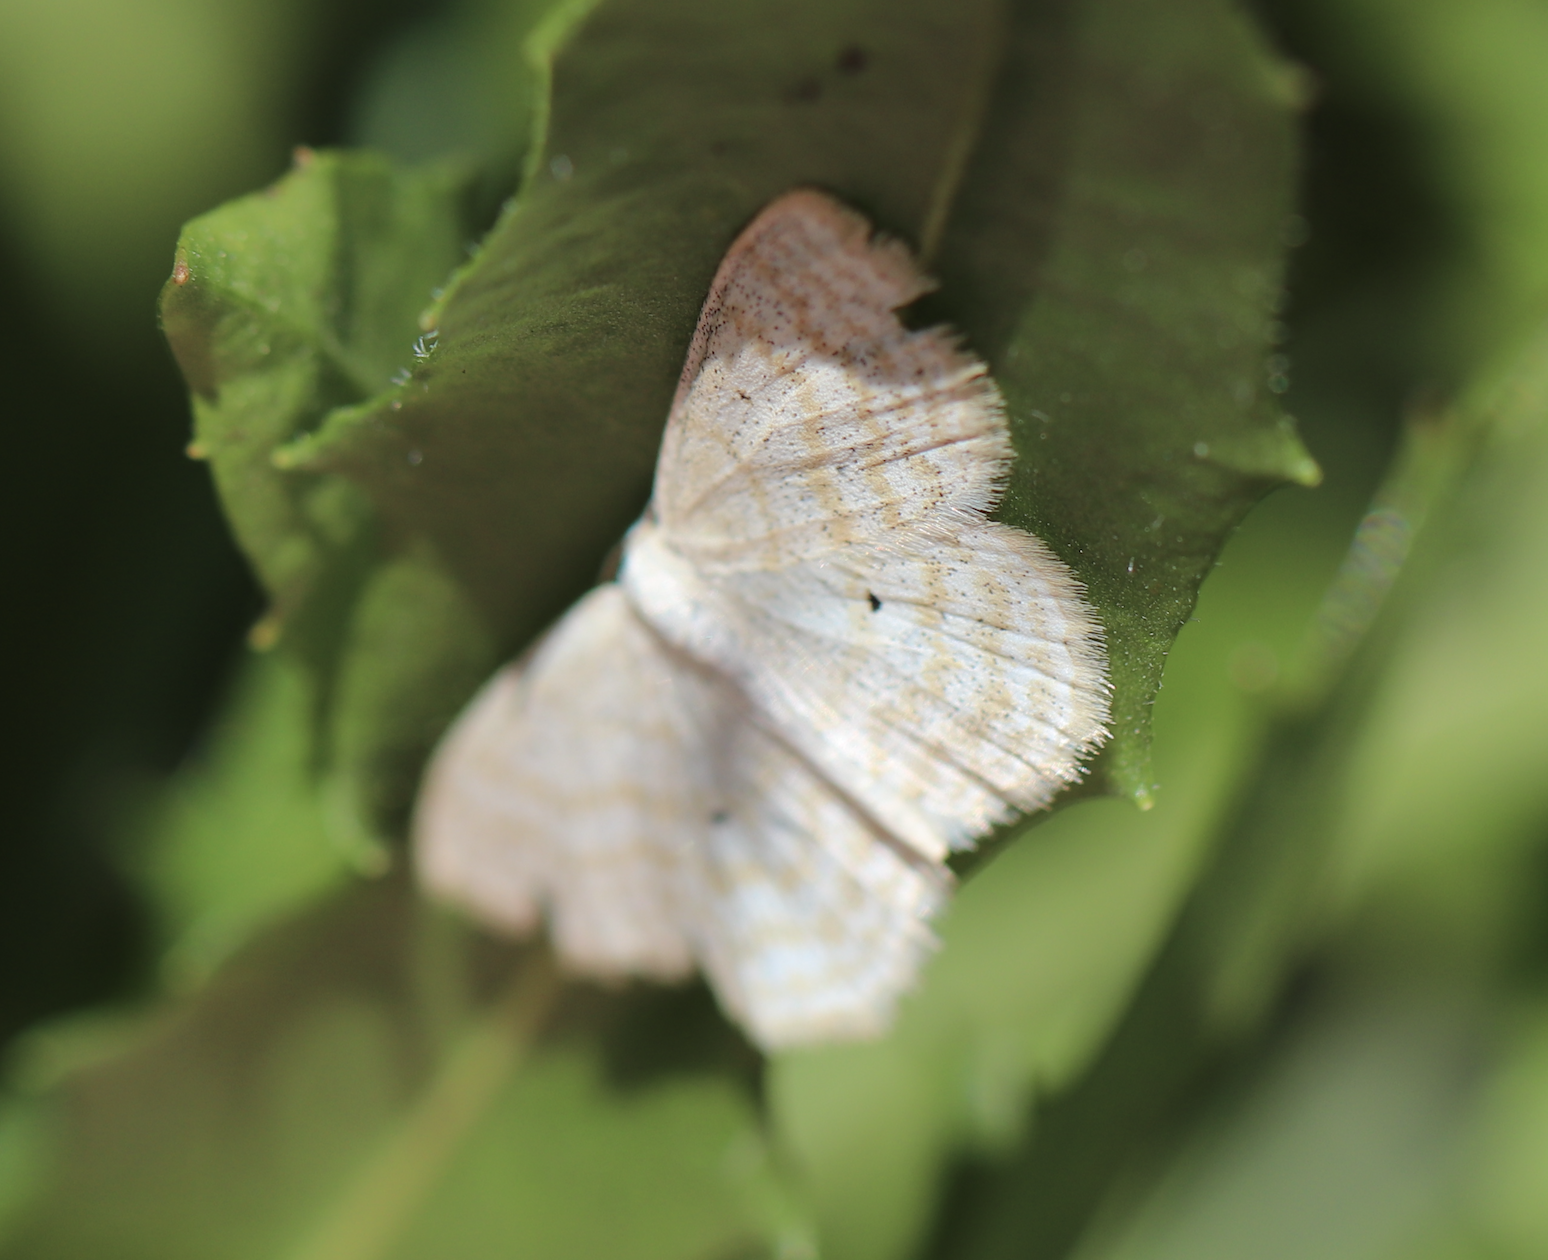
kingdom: Animalia
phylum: Arthropoda
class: Insecta
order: Lepidoptera
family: Geometridae
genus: Scopula
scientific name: Scopula immutata
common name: Lesser cream wave
